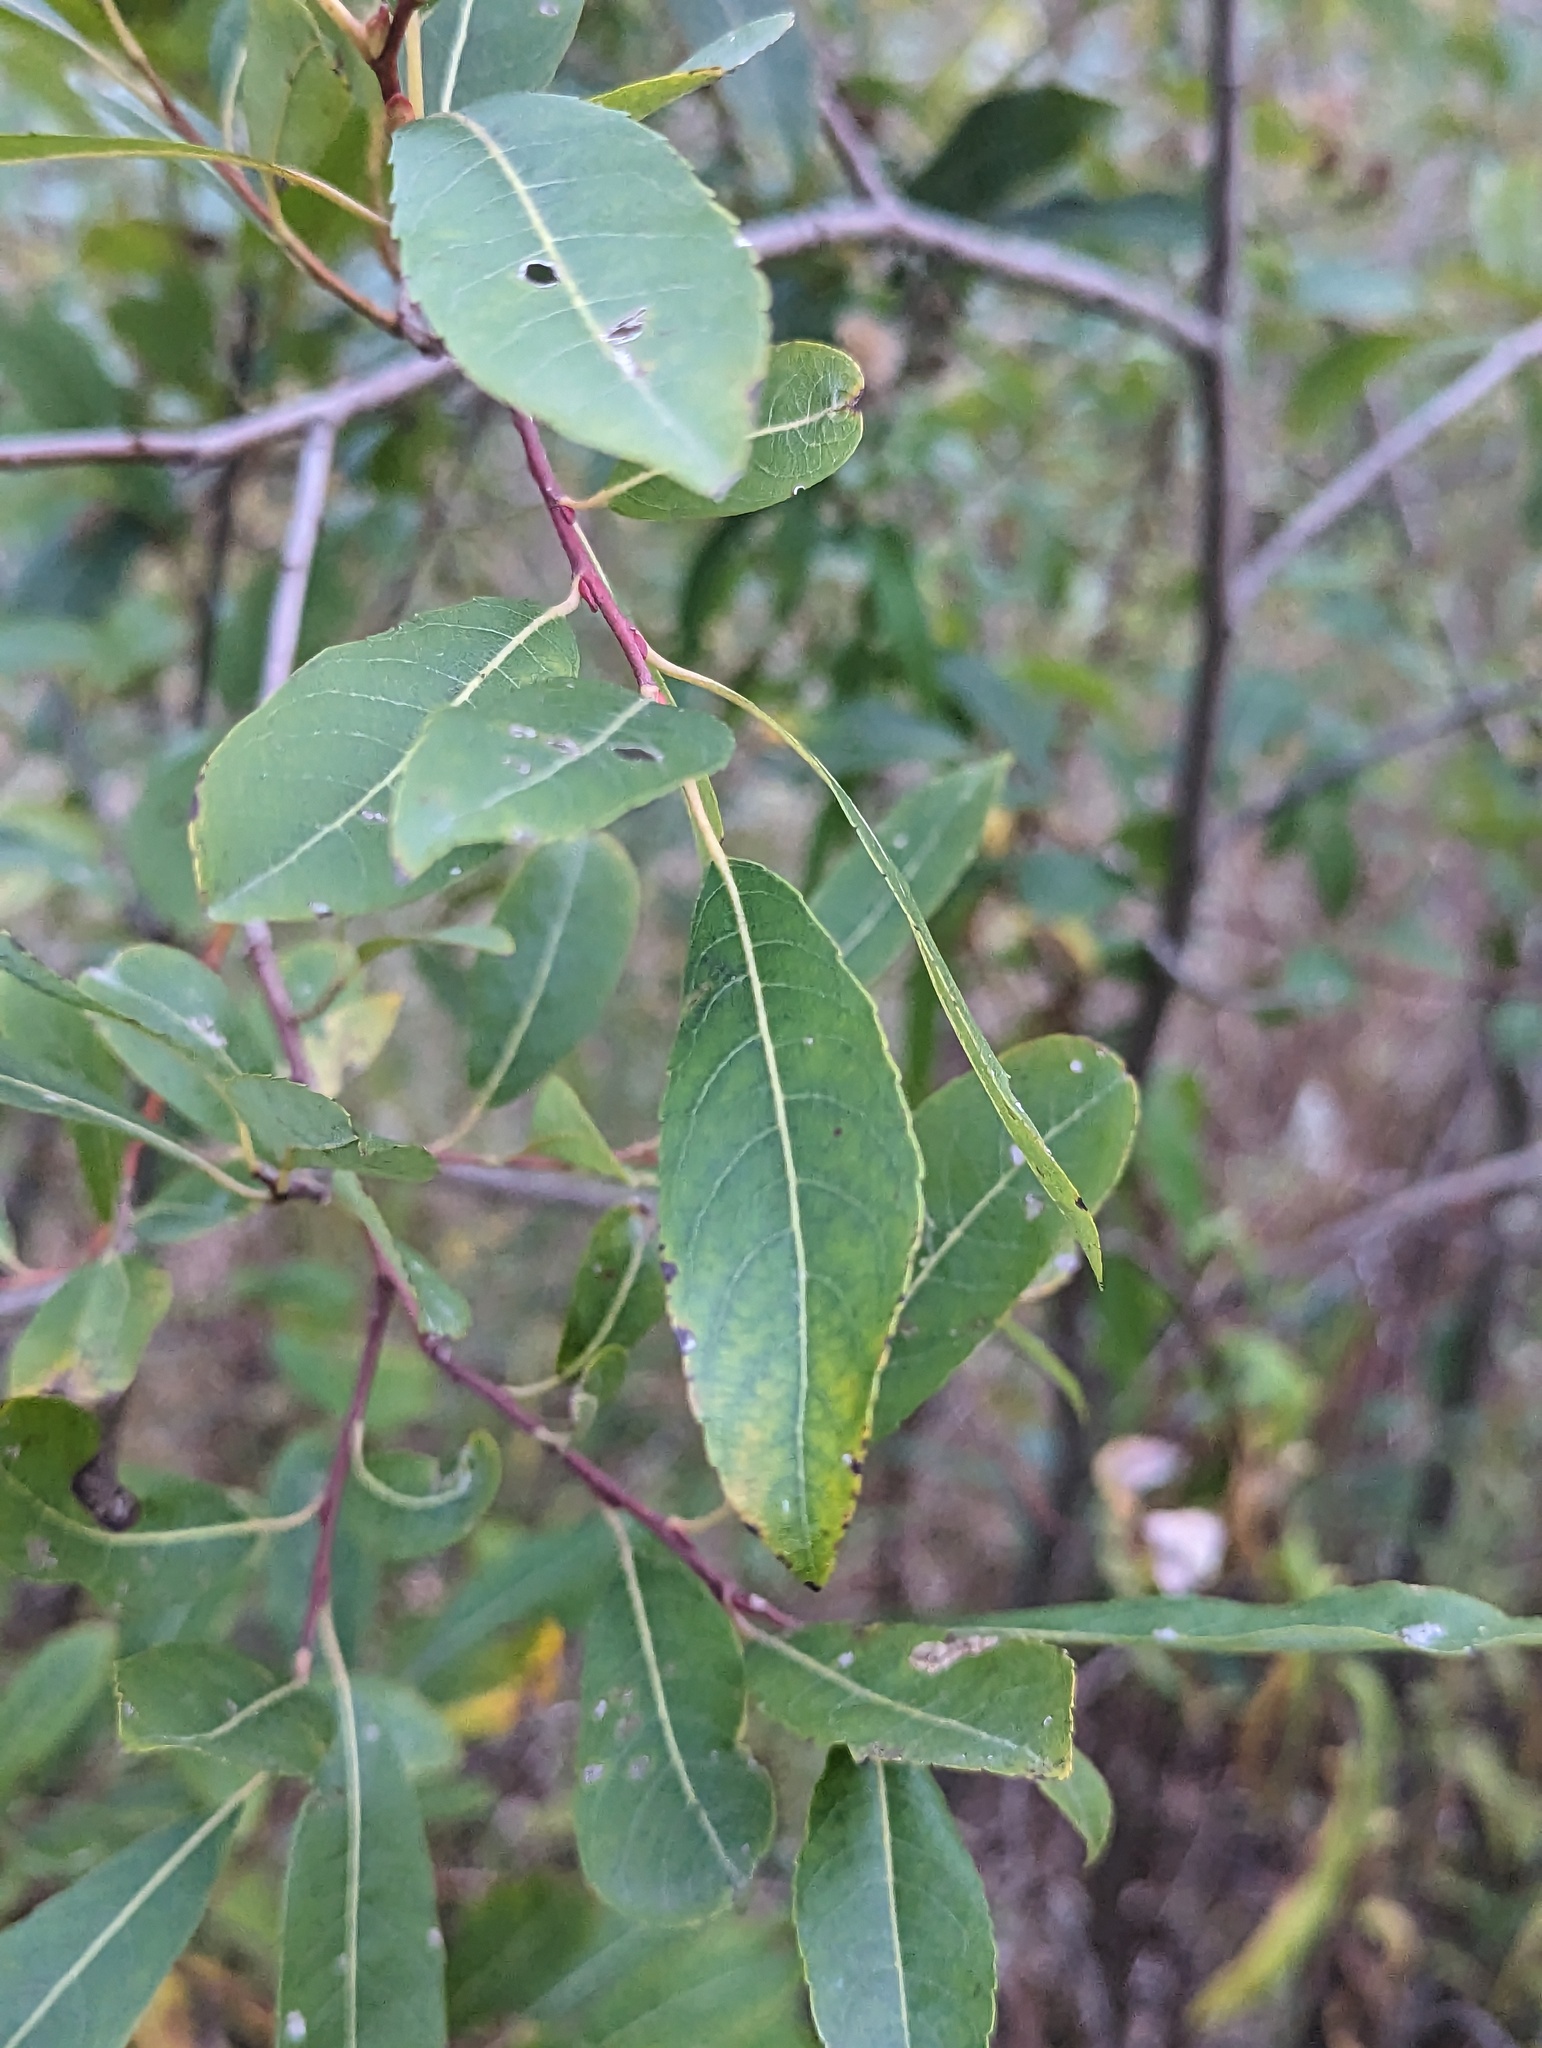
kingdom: Plantae
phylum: Tracheophyta
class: Magnoliopsida
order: Malpighiales
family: Salicaceae
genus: Salix
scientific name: Salix discolor
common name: Glaucous willow
